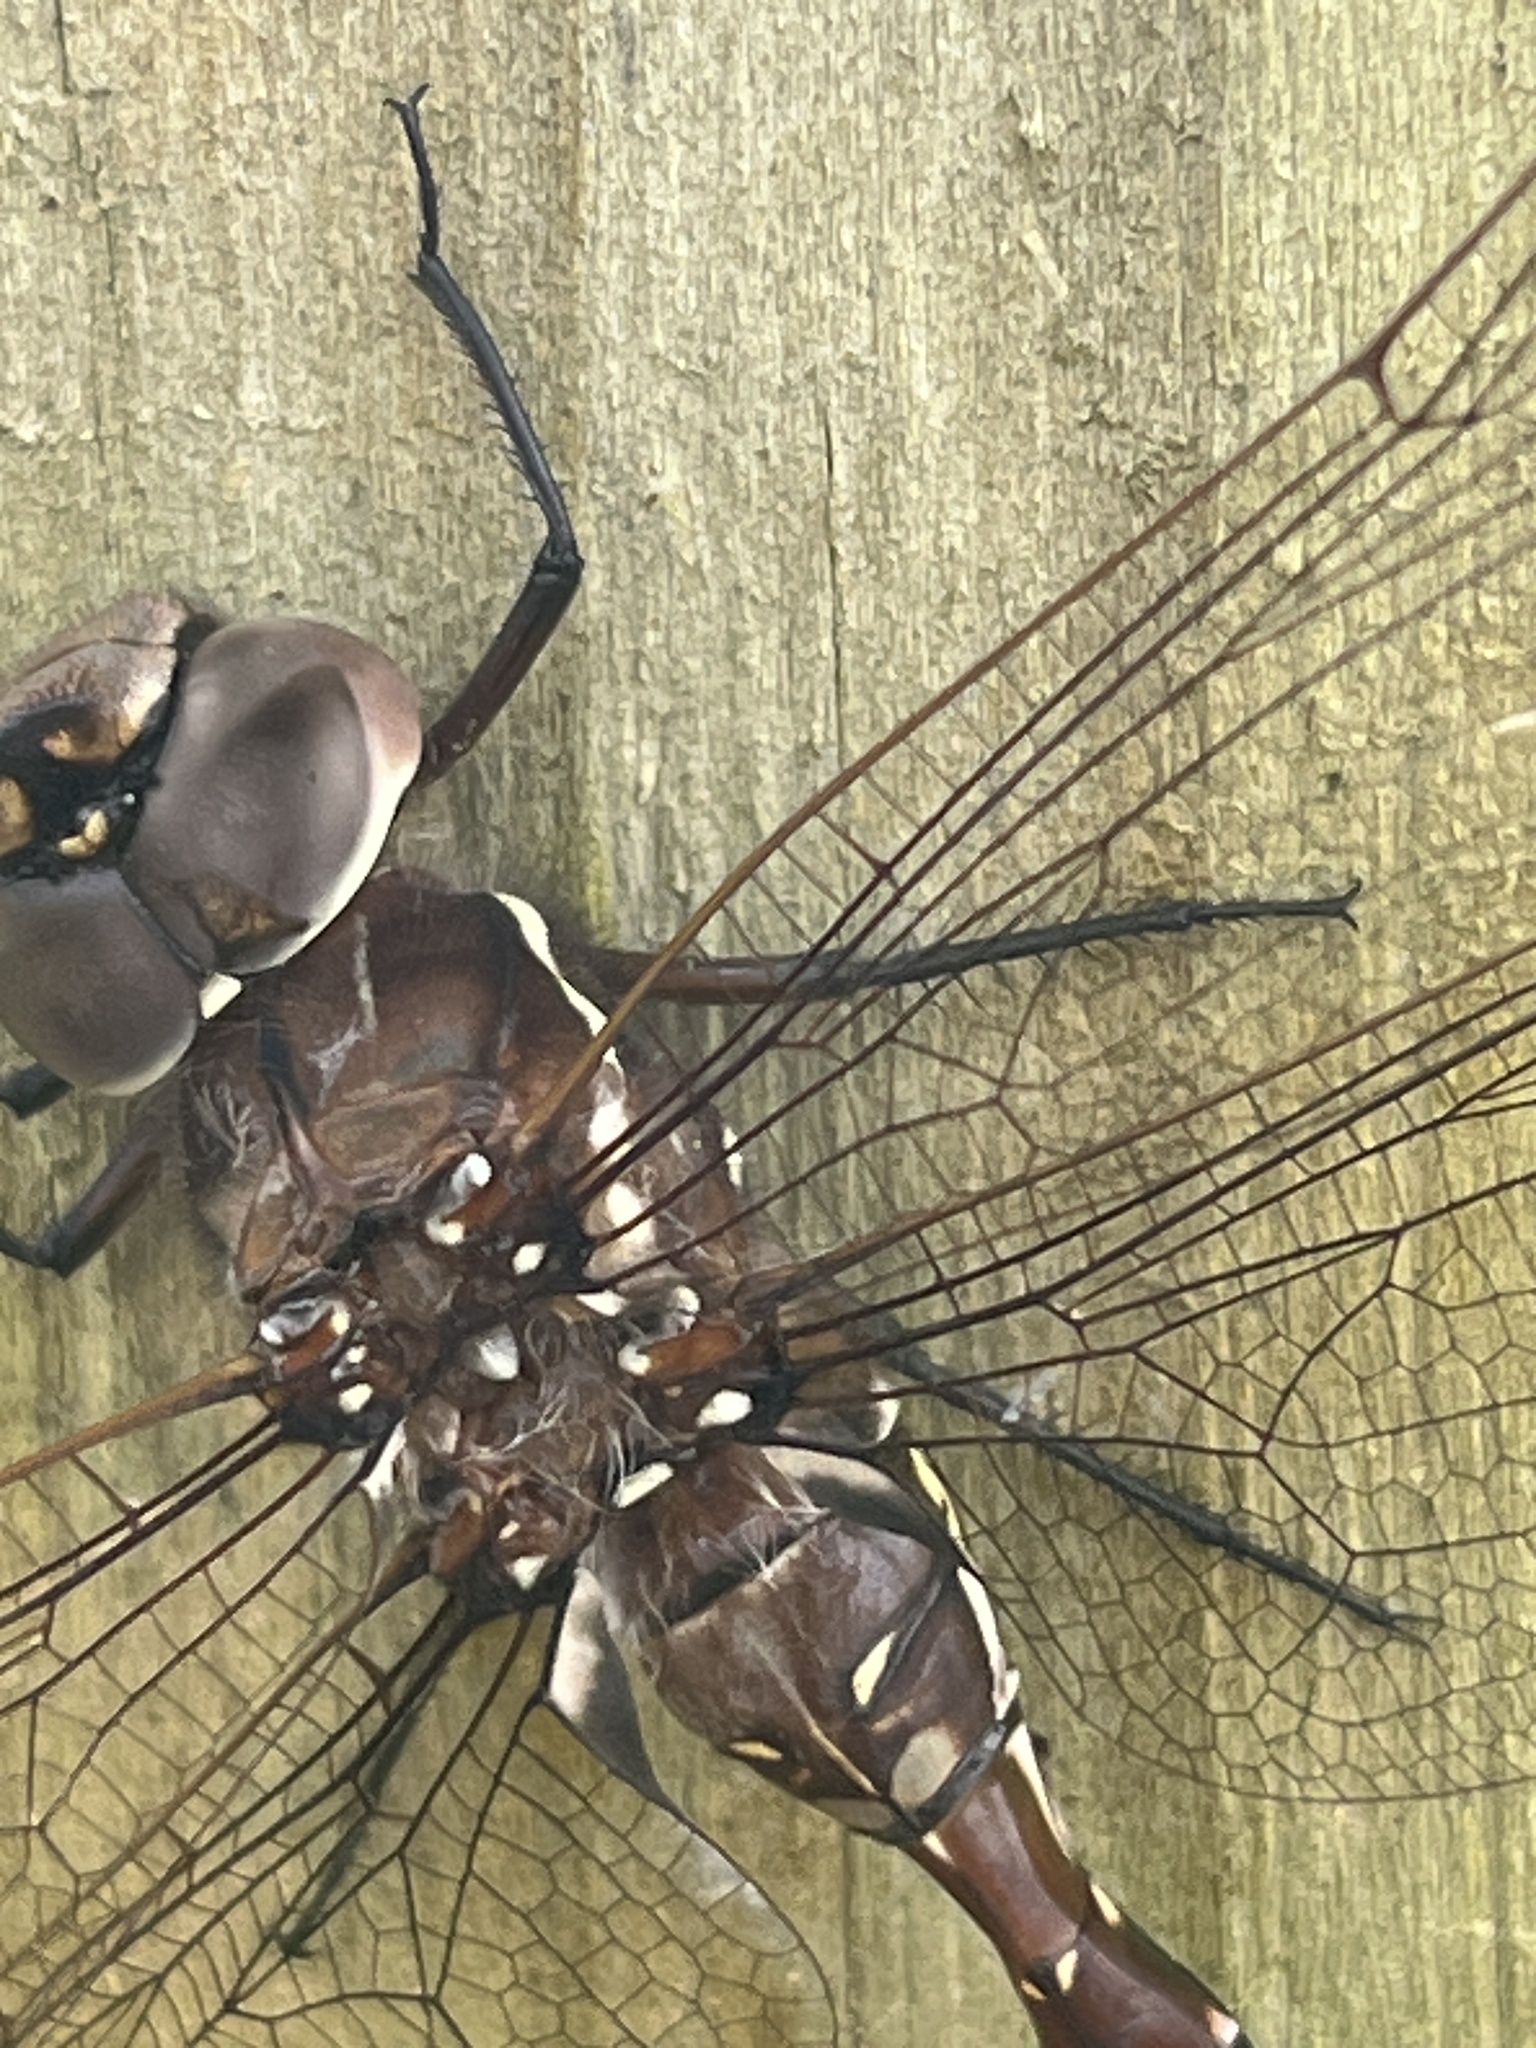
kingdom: Animalia
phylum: Arthropoda
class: Insecta
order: Odonata
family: Aeshnidae
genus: Aeshna
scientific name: Aeshna brevistyla
